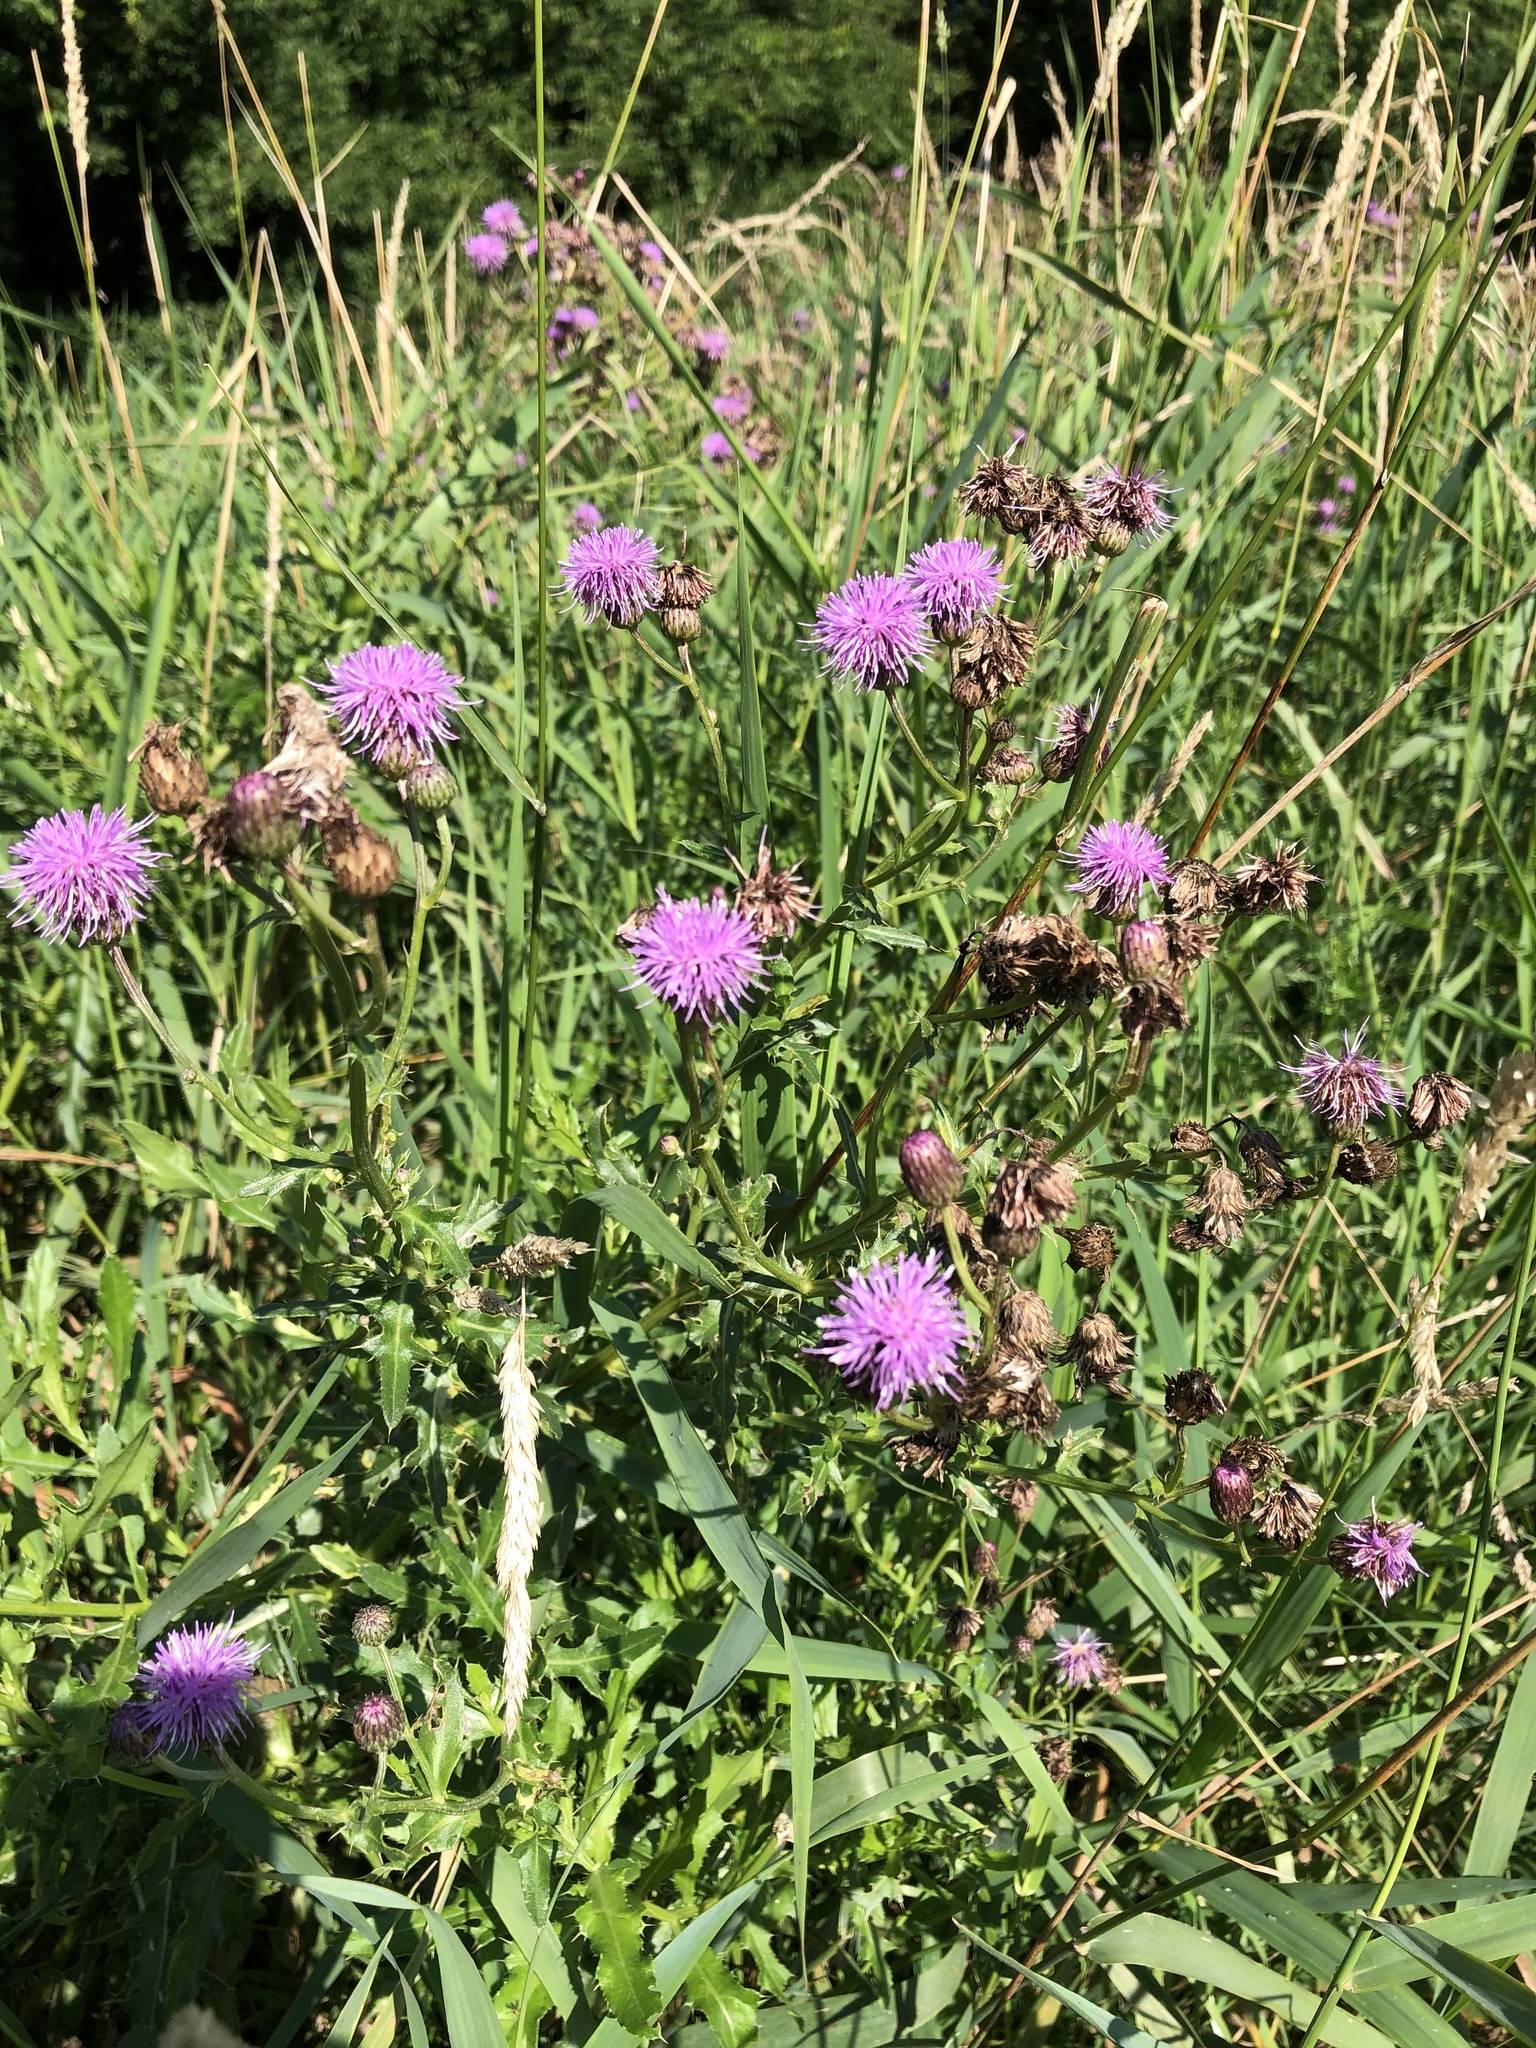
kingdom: Plantae
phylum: Tracheophyta
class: Magnoliopsida
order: Asterales
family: Asteraceae
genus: Cirsium
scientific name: Cirsium arvense
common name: Creeping thistle
